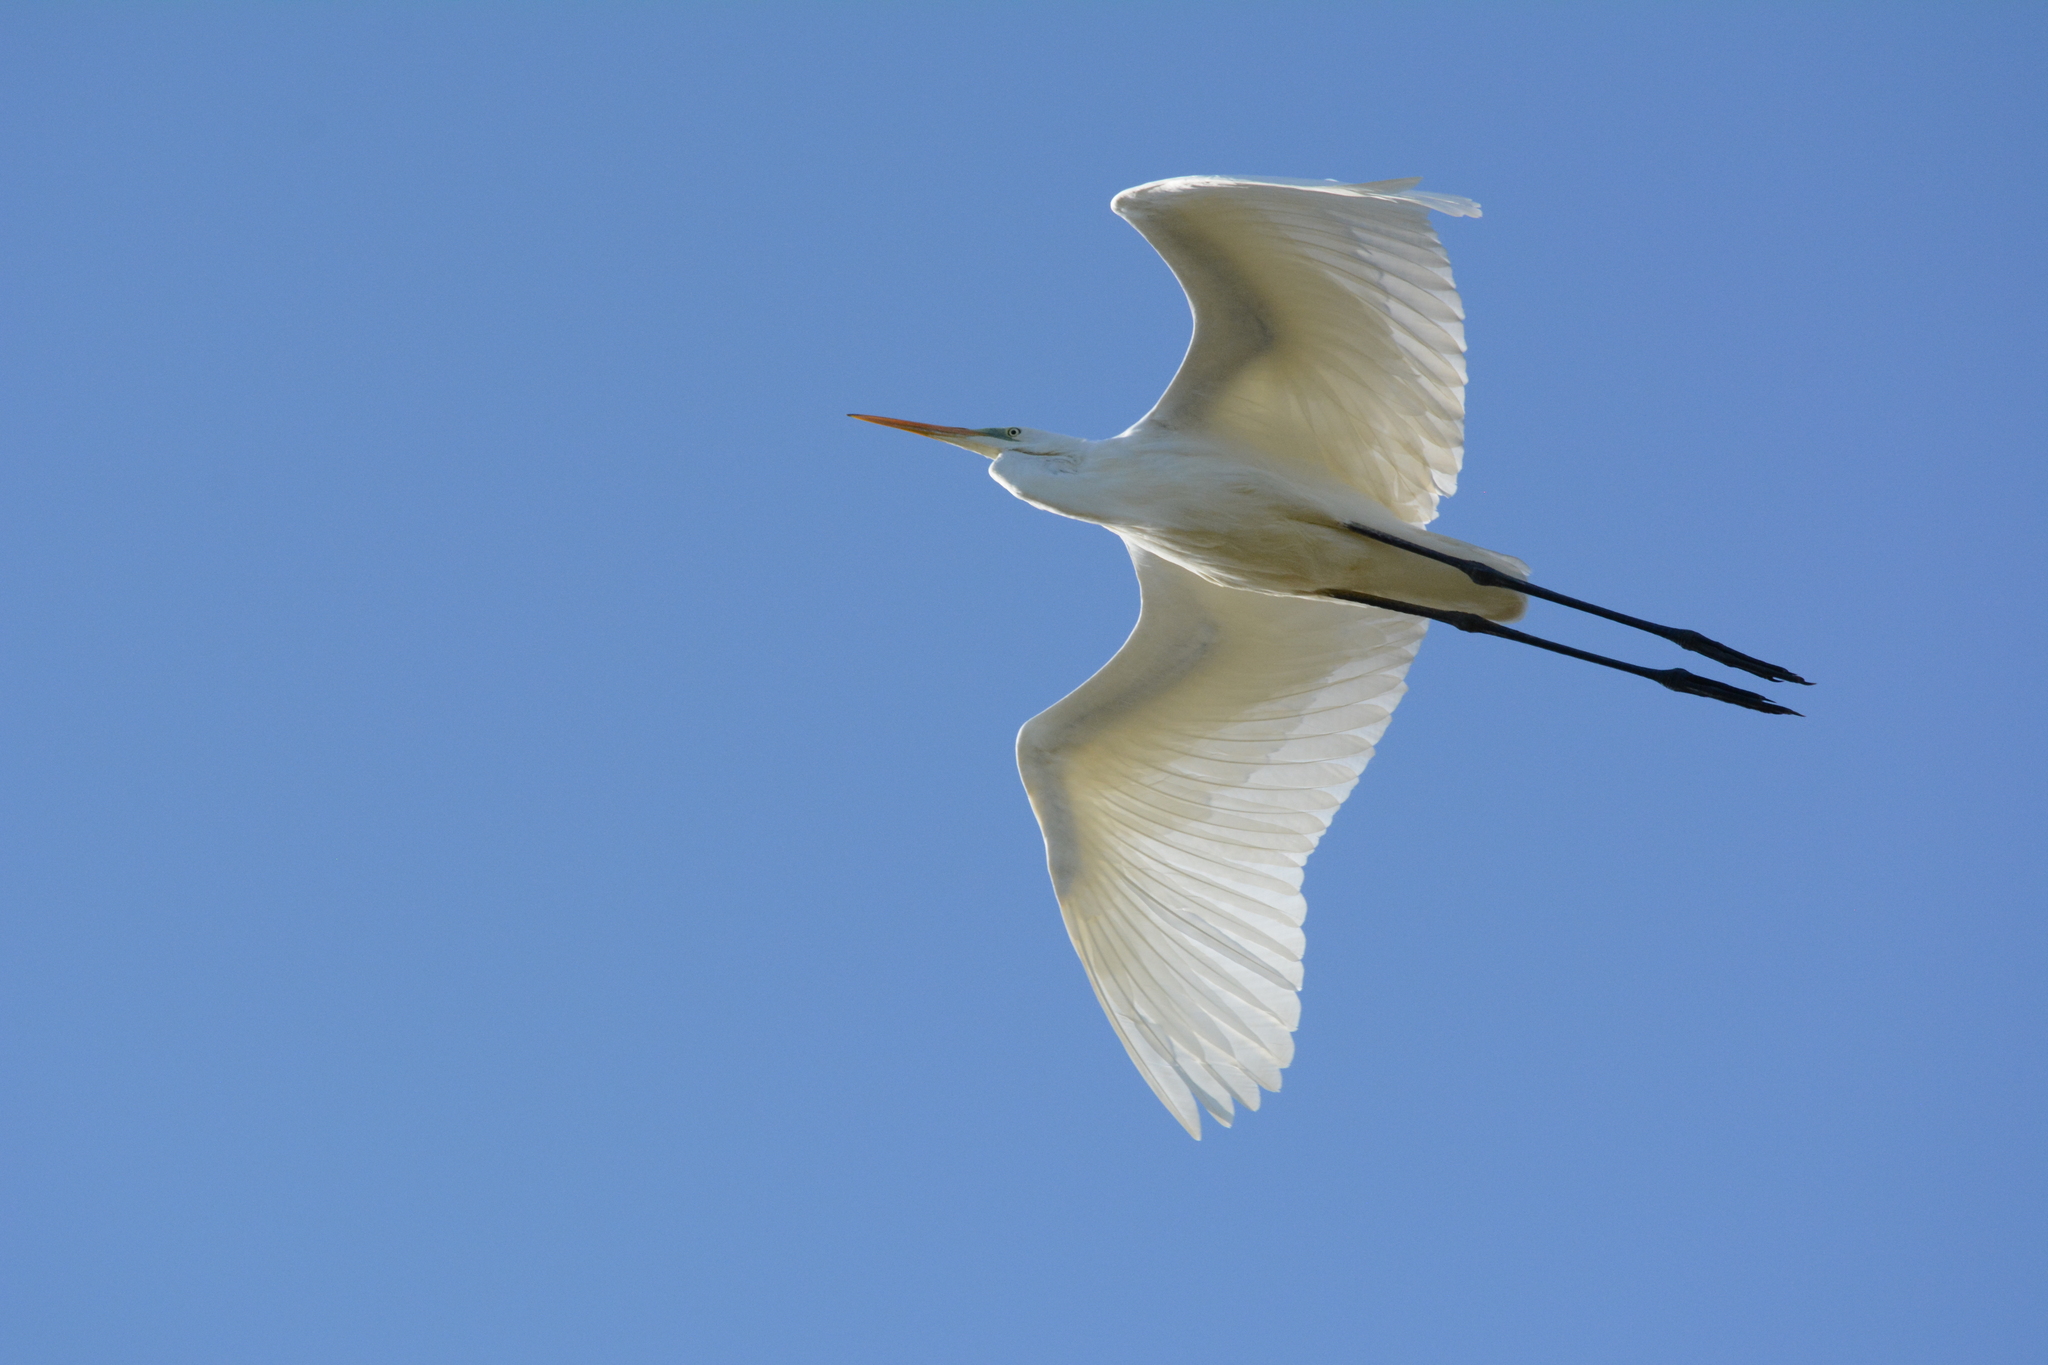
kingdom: Animalia
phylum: Chordata
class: Aves
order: Pelecaniformes
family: Ardeidae
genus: Ardea
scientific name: Ardea alba
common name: Great egret
